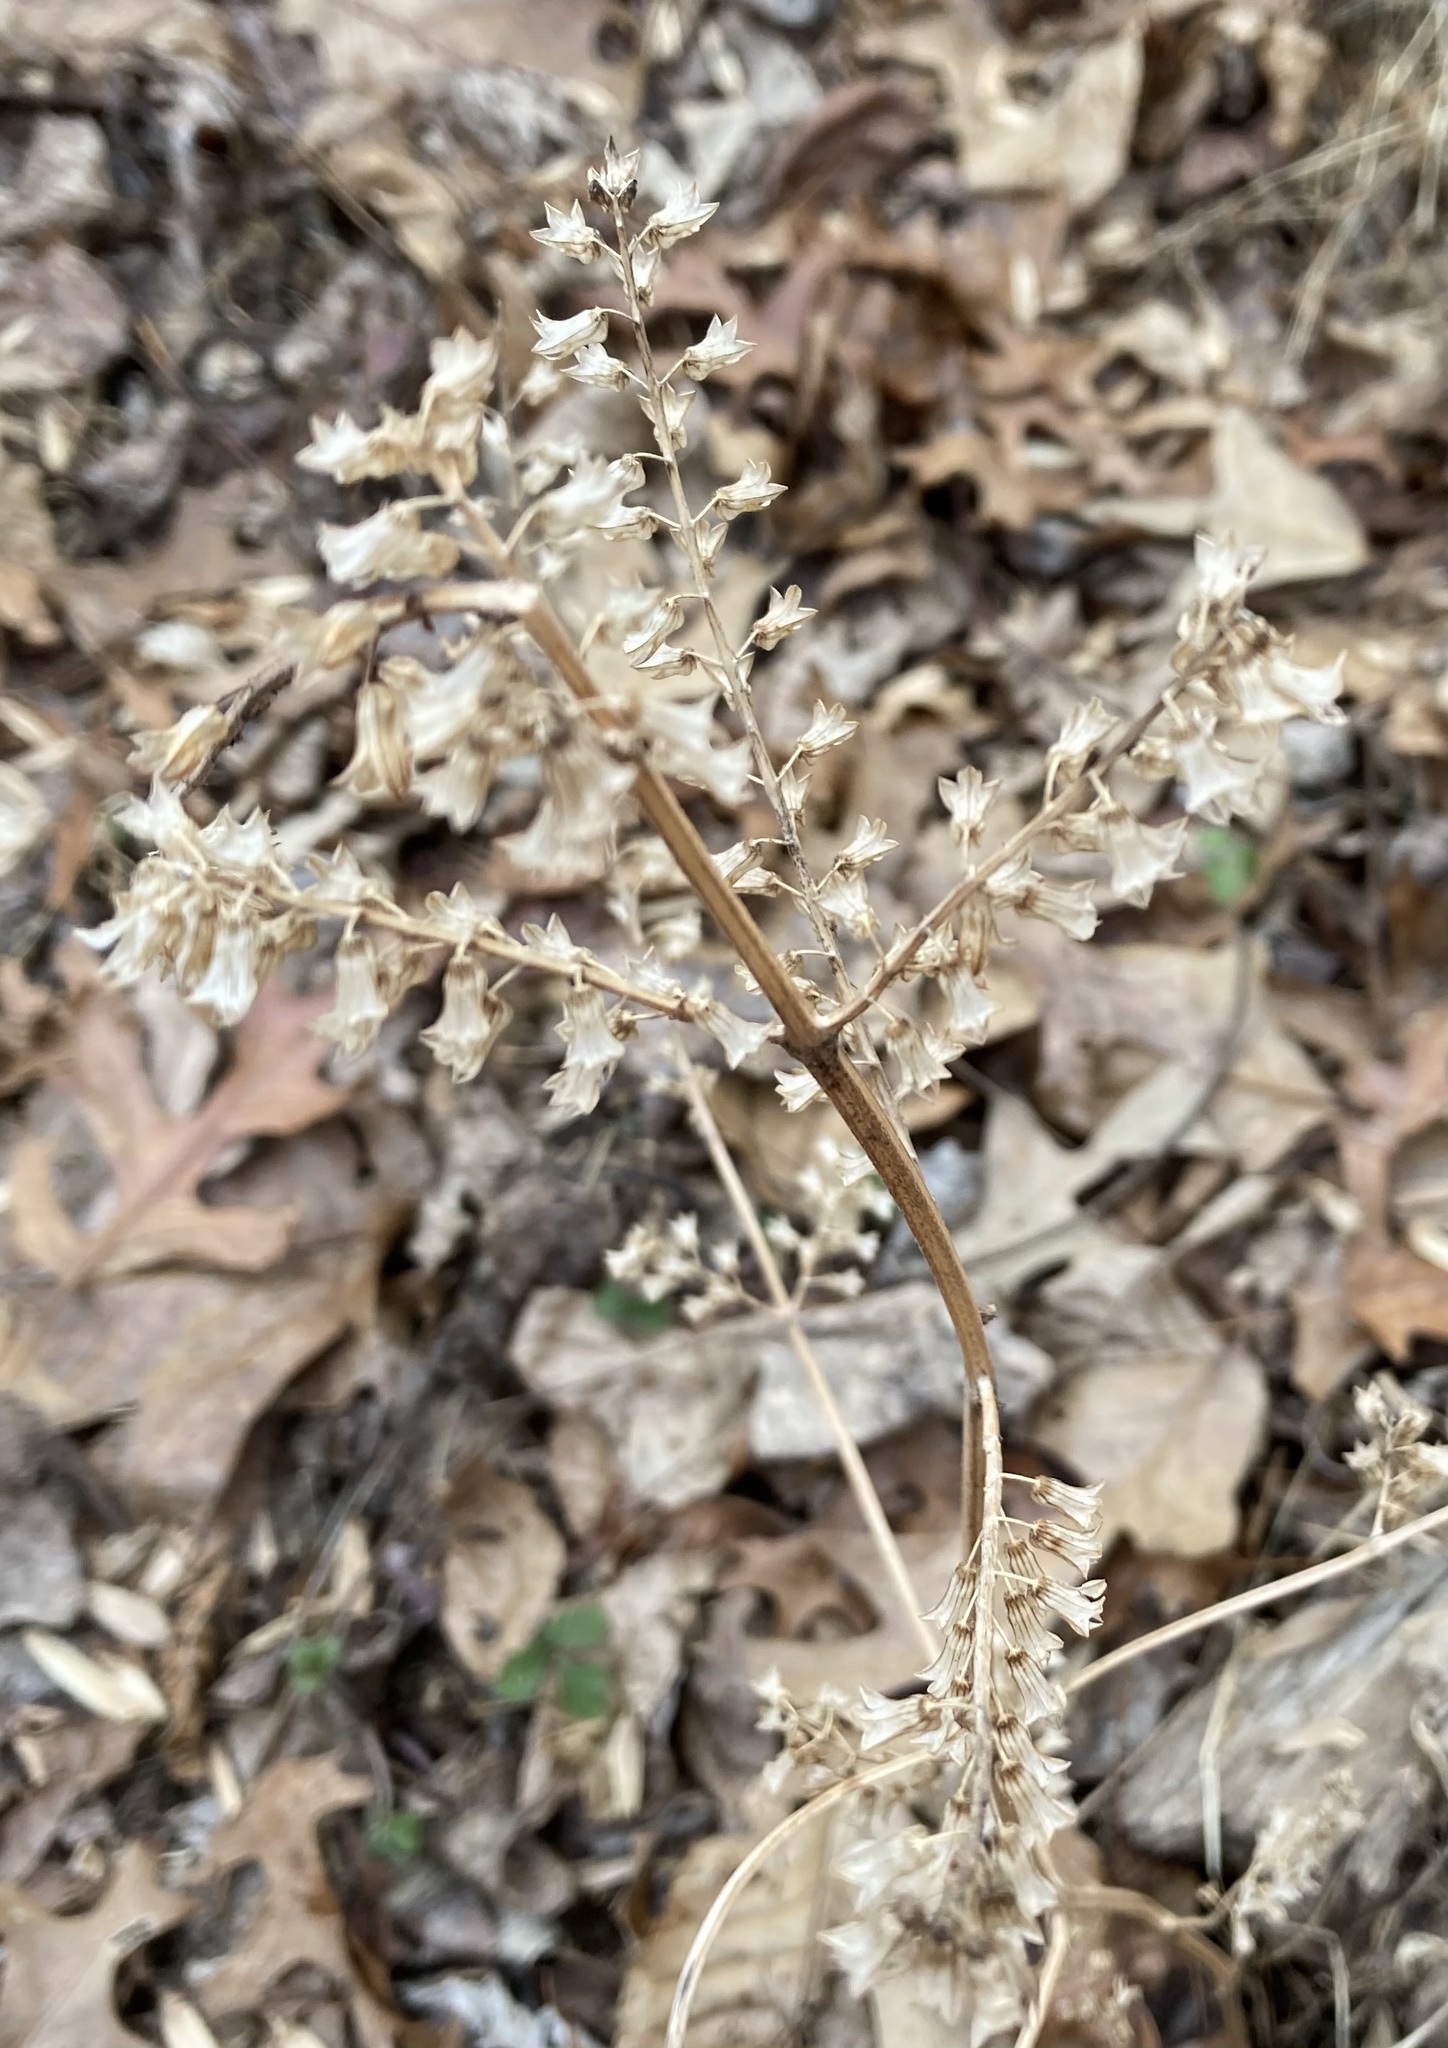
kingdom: Plantae
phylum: Tracheophyta
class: Magnoliopsida
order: Lamiales
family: Lamiaceae
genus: Perilla
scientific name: Perilla frutescens
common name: Perilla
